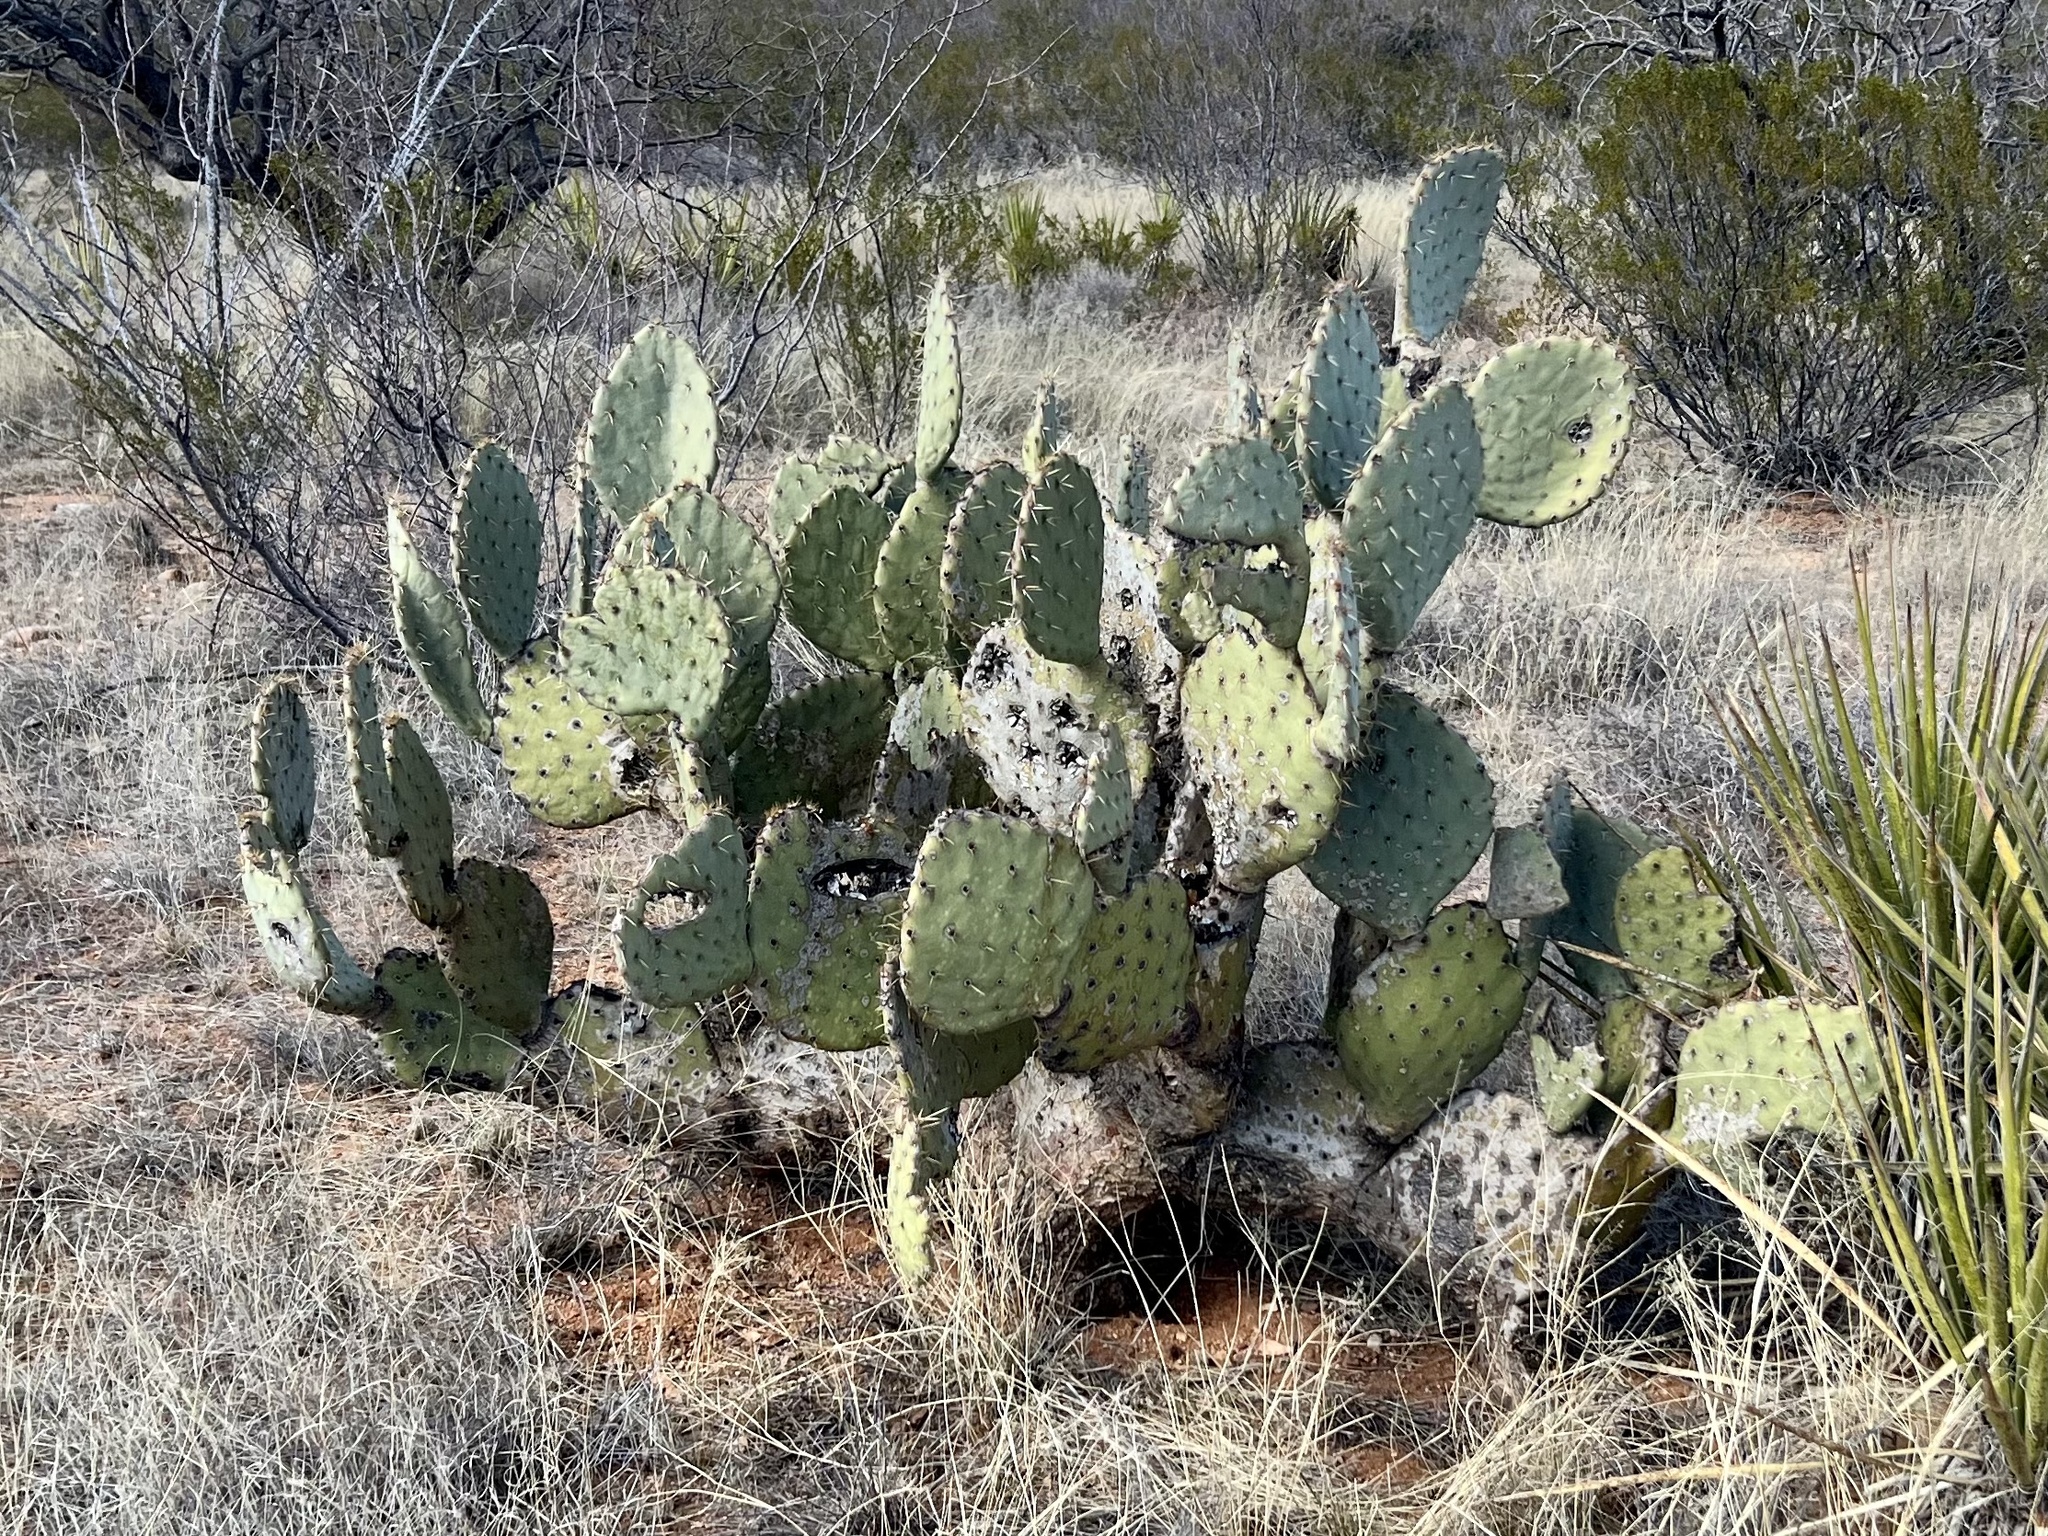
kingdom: Plantae
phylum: Tracheophyta
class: Magnoliopsida
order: Caryophyllales
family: Cactaceae
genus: Opuntia
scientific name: Opuntia engelmannii
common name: Cactus-apple
